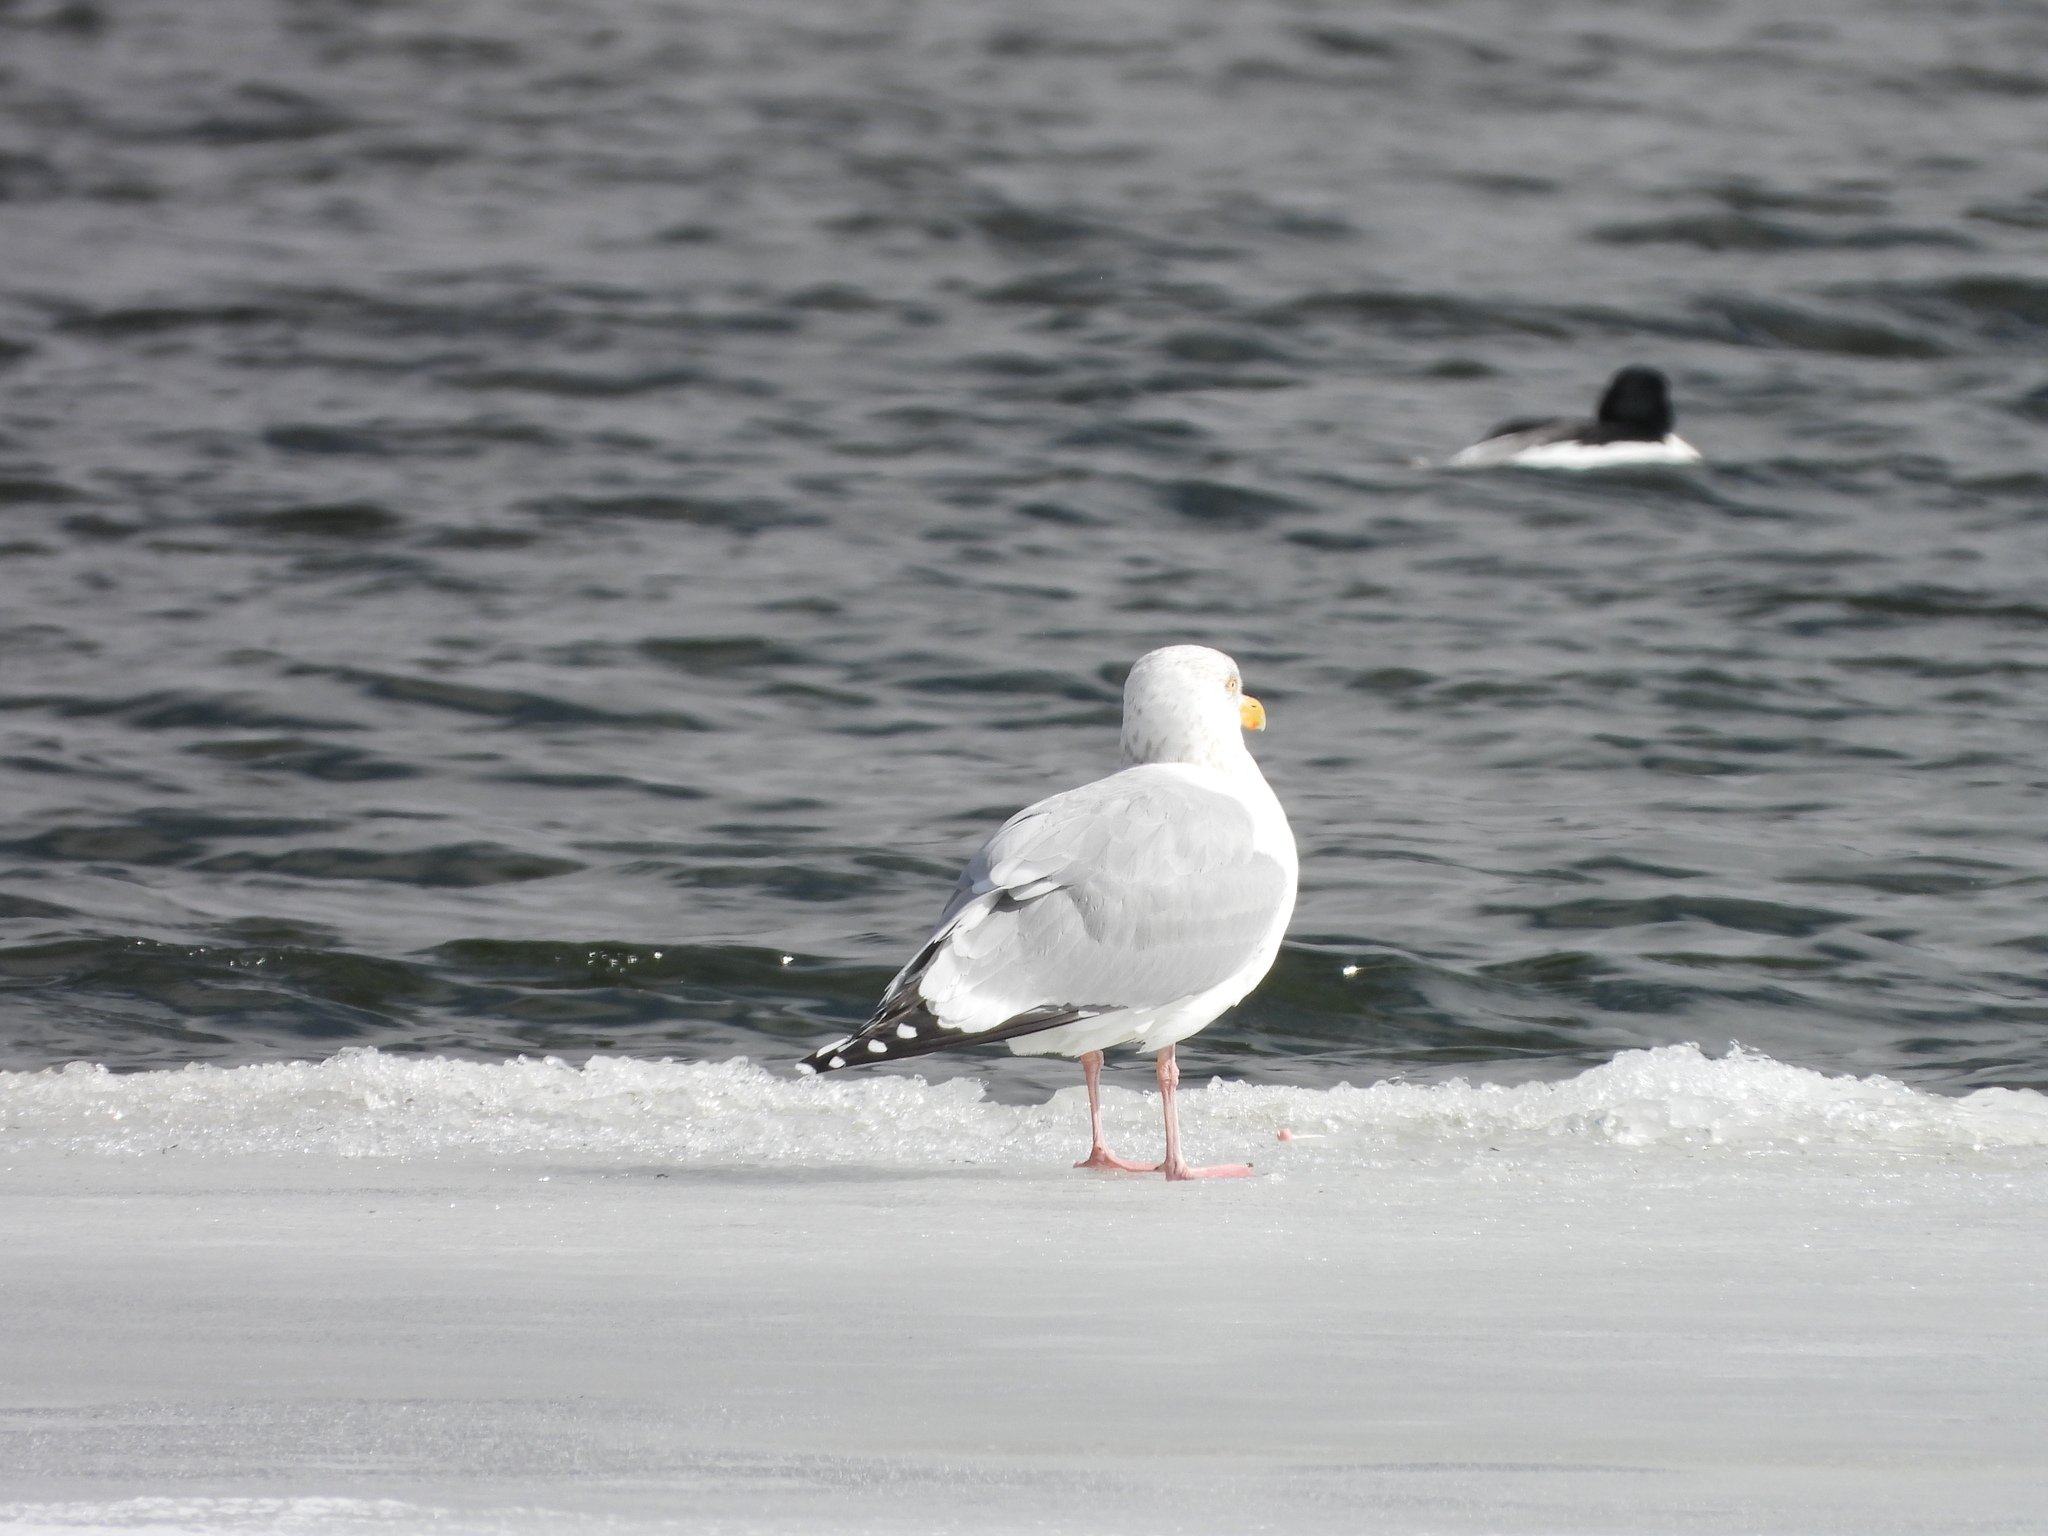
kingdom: Animalia
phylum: Chordata
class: Aves
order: Charadriiformes
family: Laridae
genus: Larus
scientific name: Larus smithsonianus
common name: American herring gull
